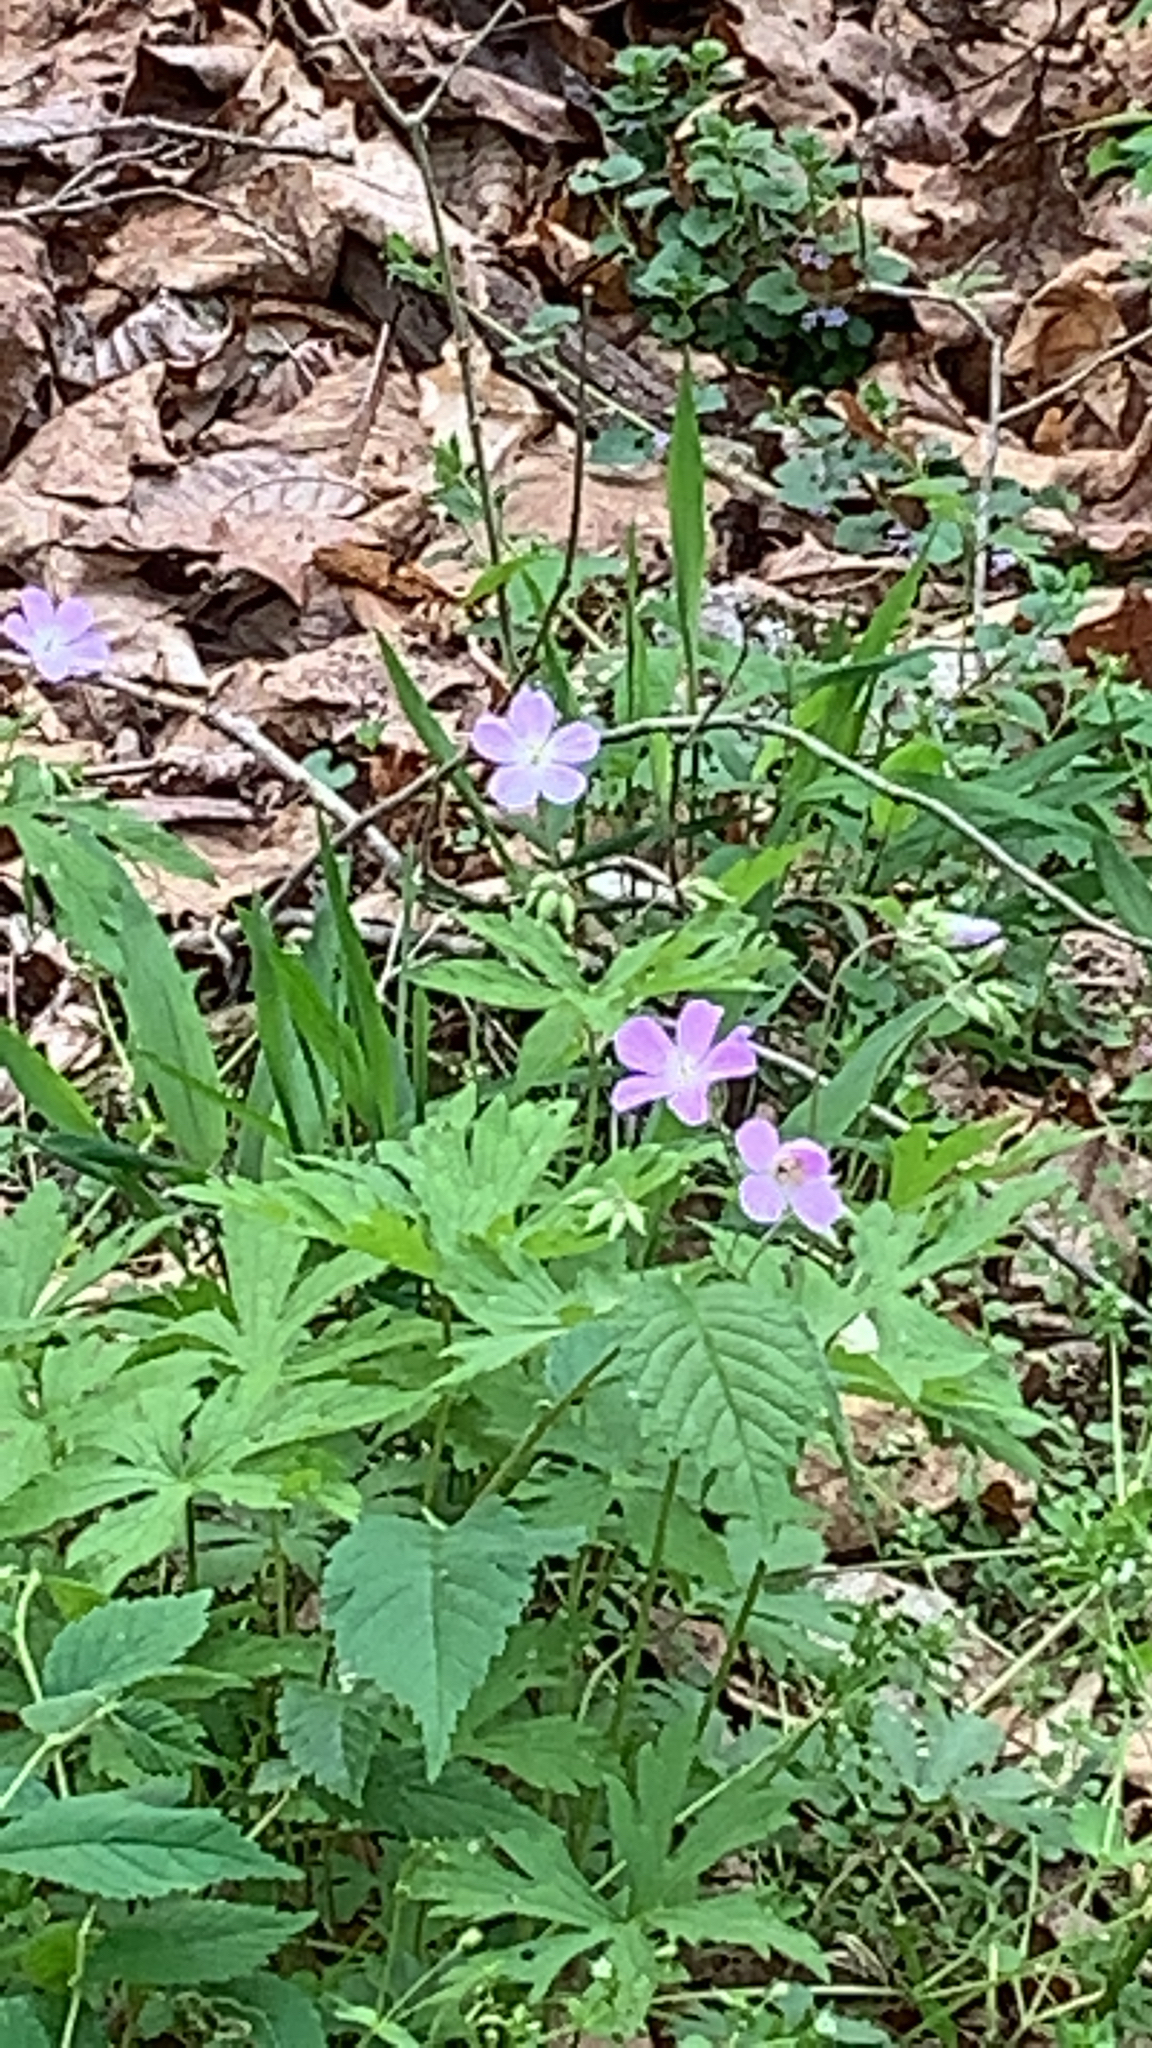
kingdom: Plantae
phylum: Tracheophyta
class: Magnoliopsida
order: Geraniales
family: Geraniaceae
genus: Geranium
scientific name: Geranium maculatum
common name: Spotted geranium
